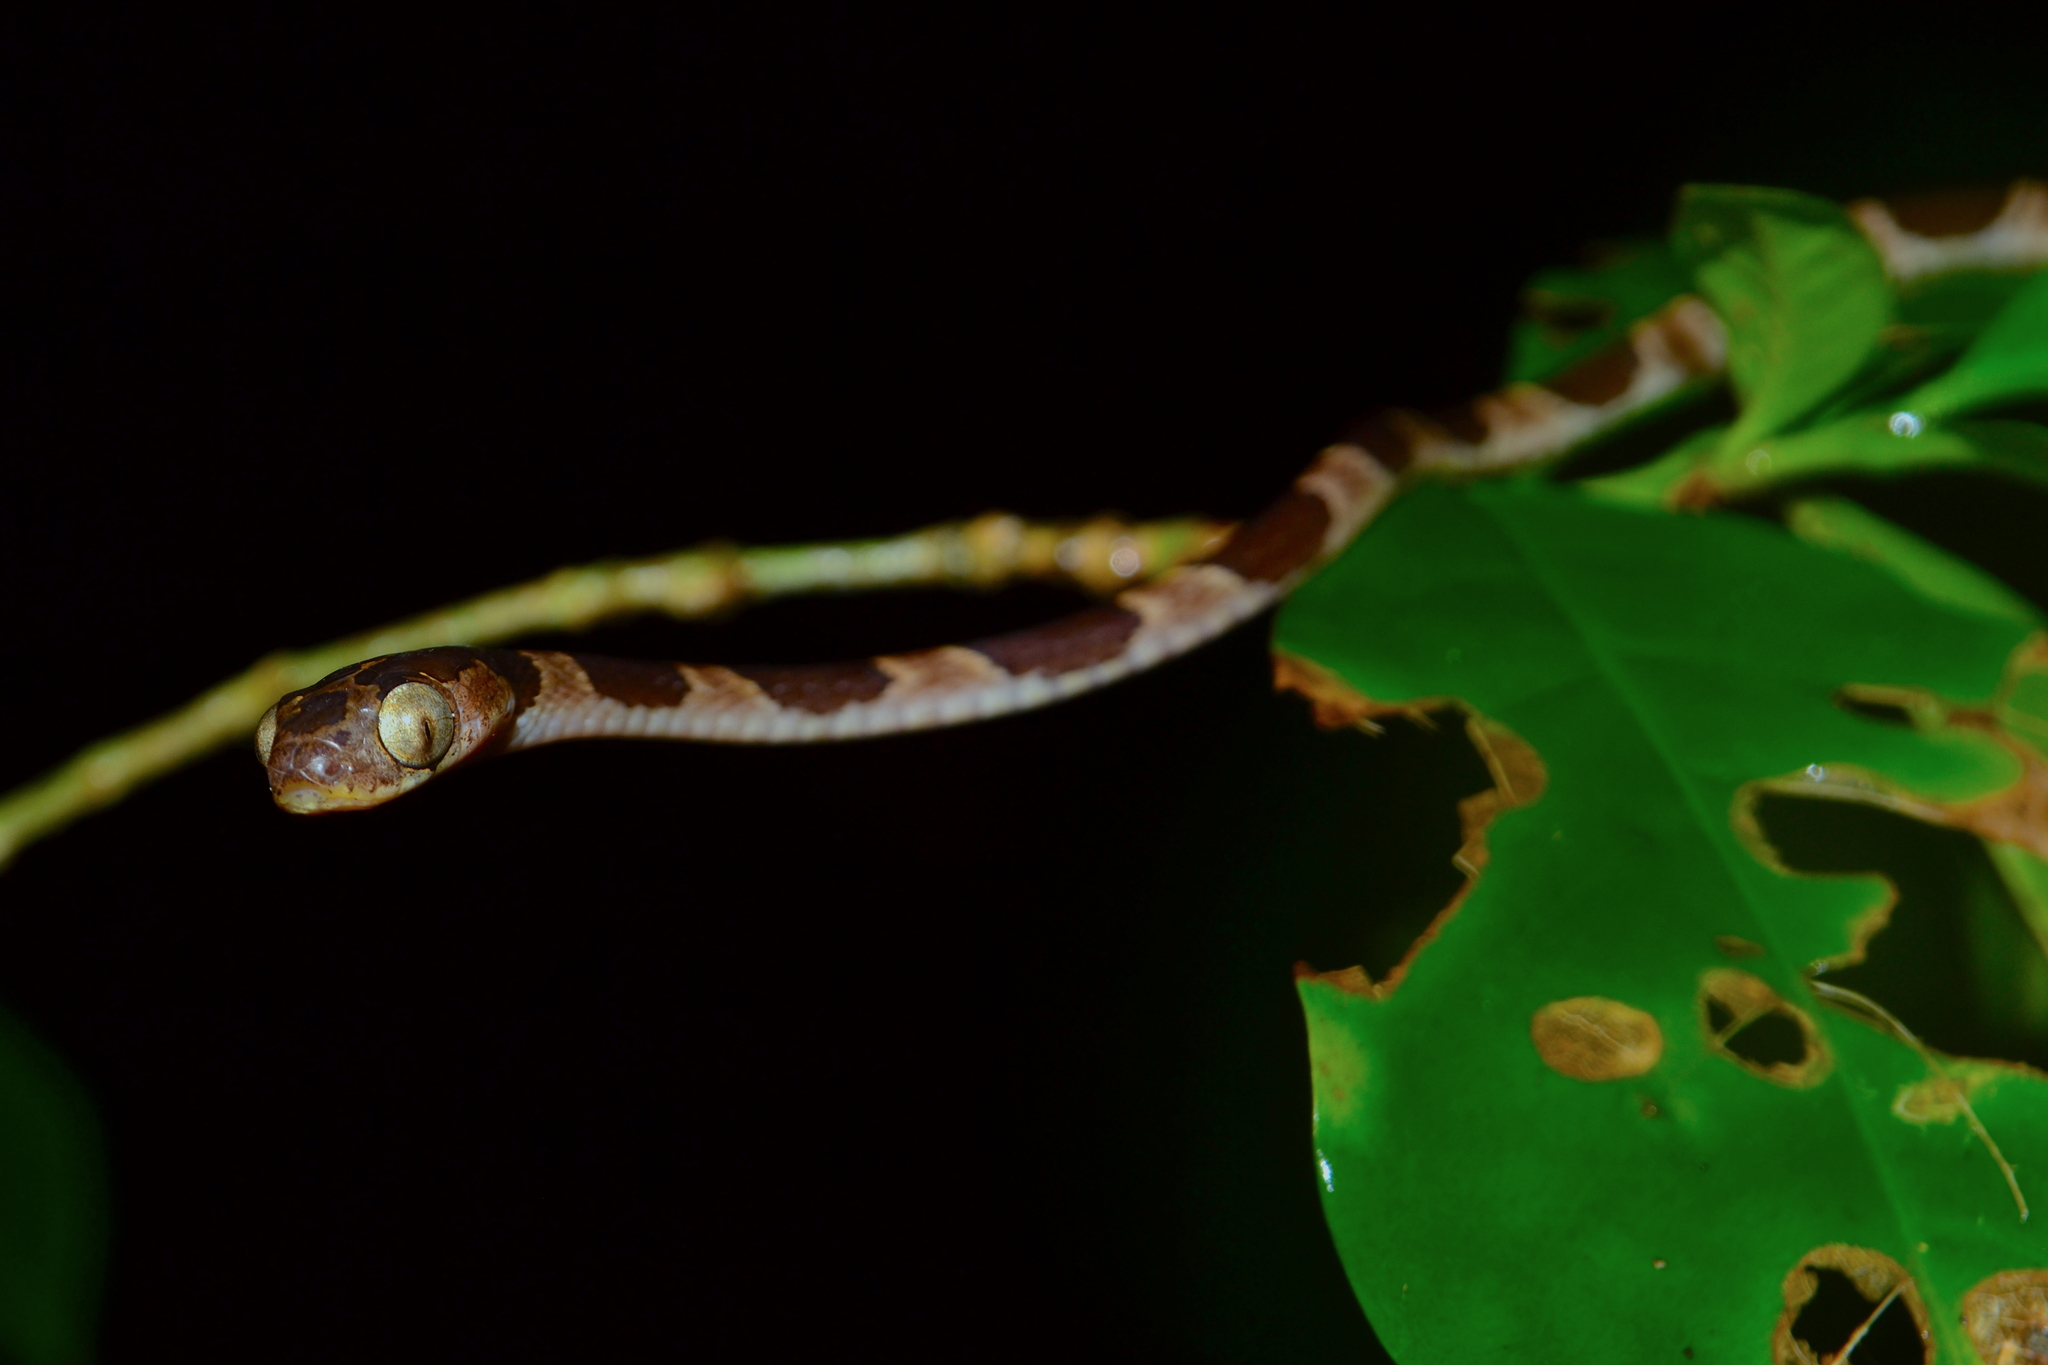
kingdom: Animalia
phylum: Chordata
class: Squamata
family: Colubridae
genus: Imantodes
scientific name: Imantodes cenchoa
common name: Blunthead tree snake
